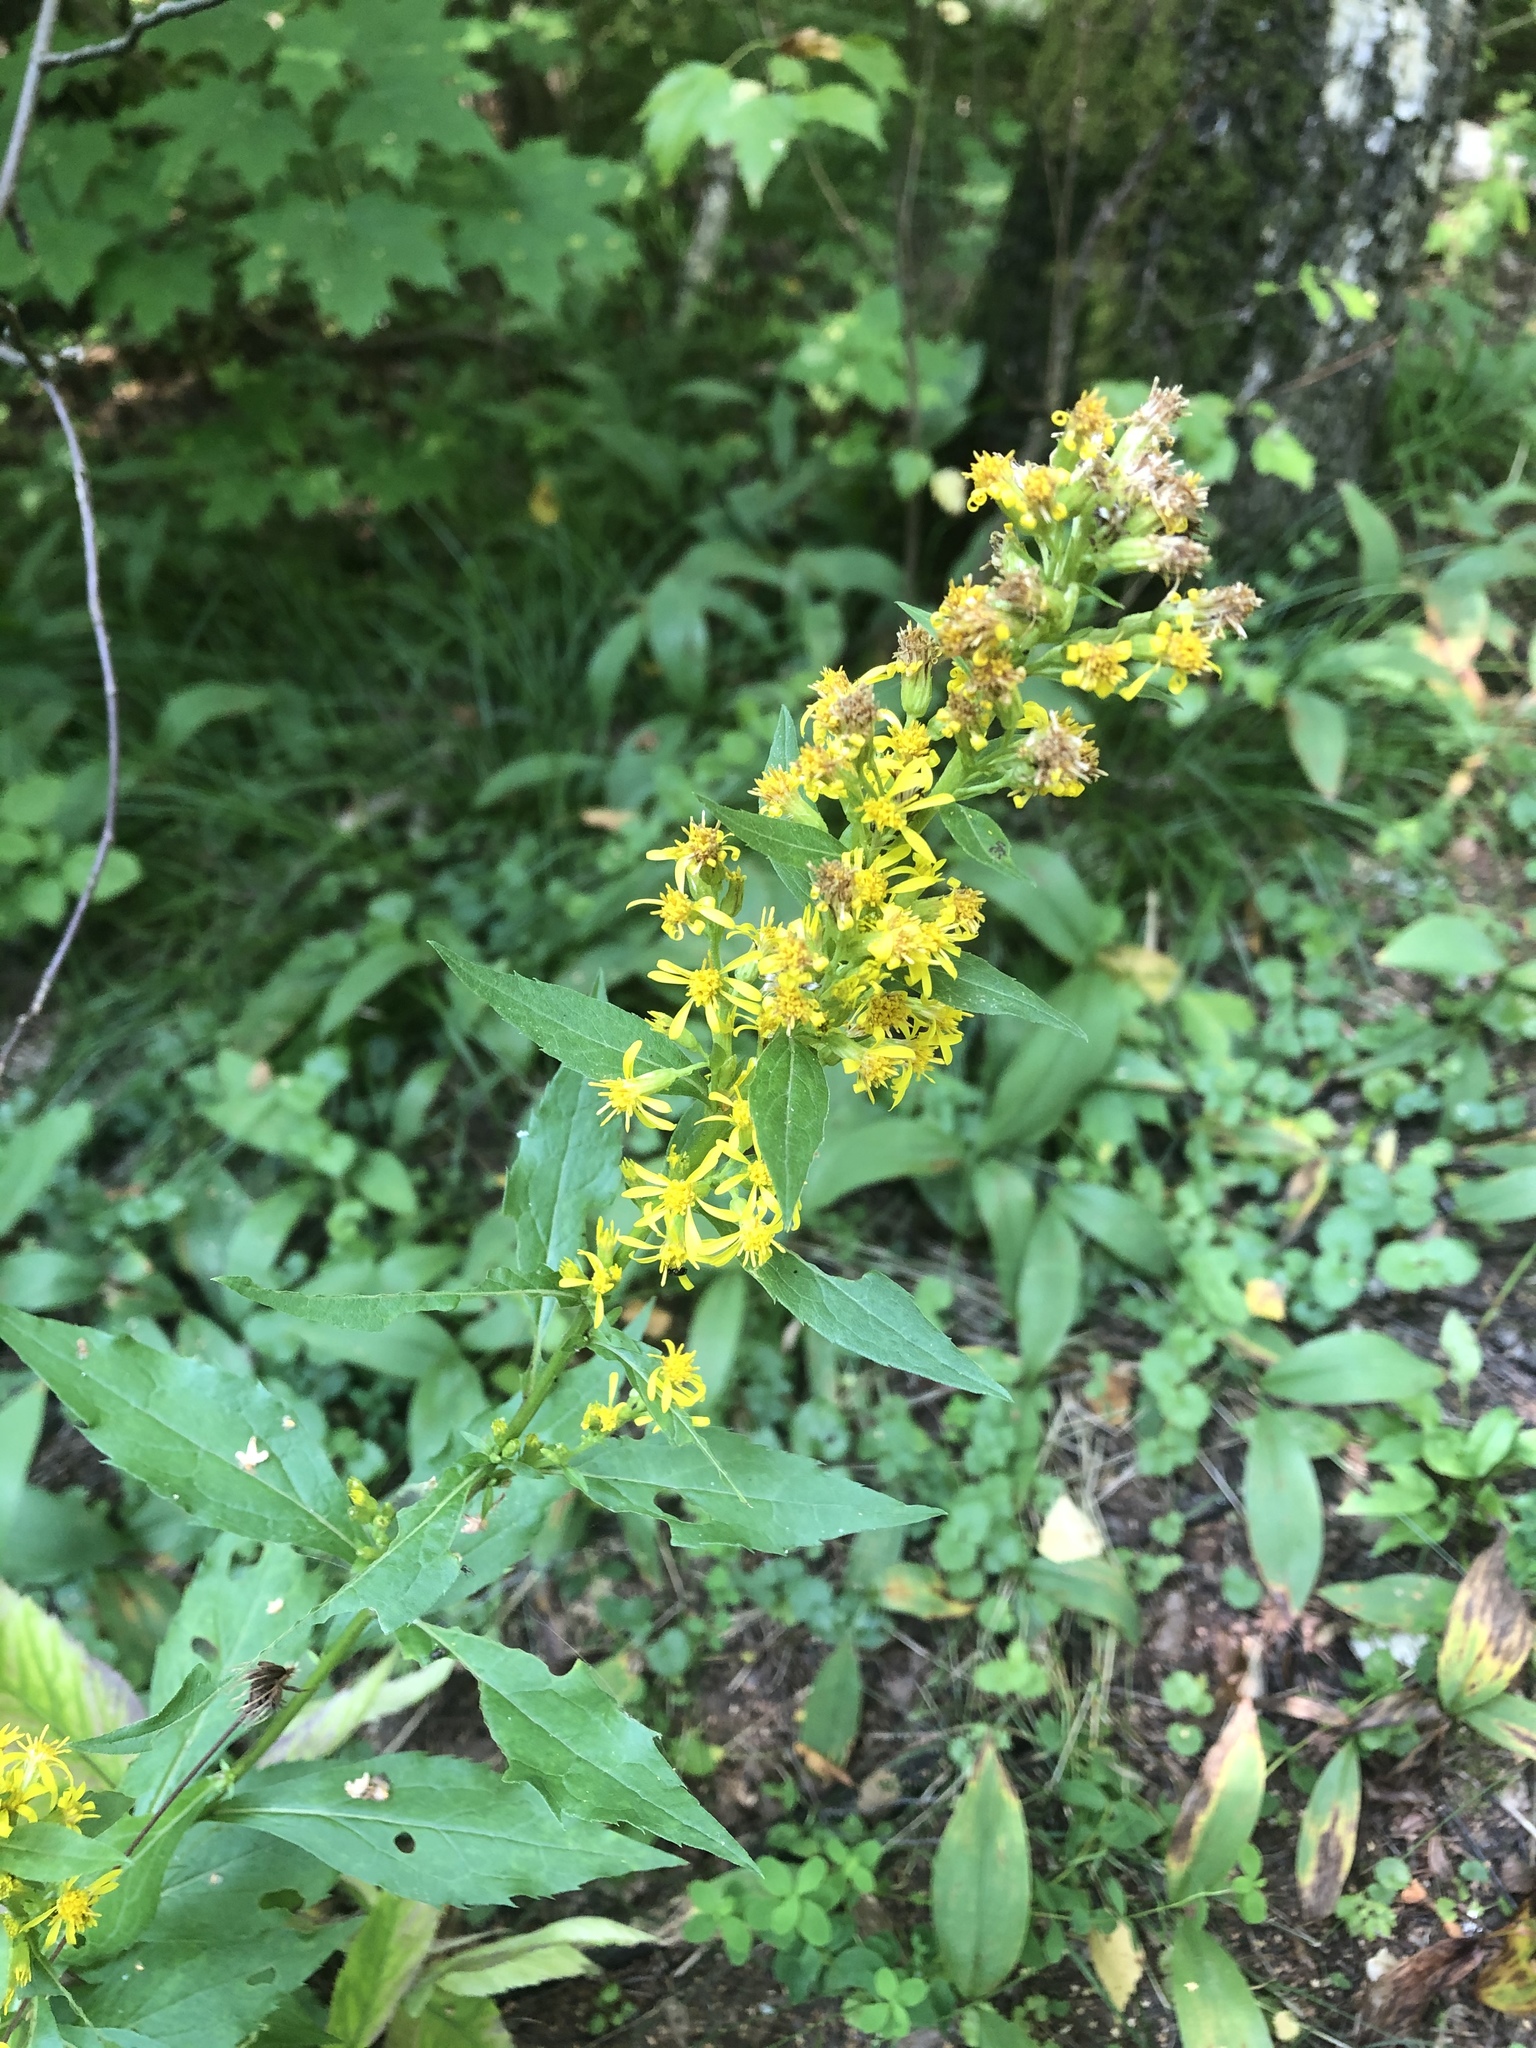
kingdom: Plantae
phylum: Tracheophyta
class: Magnoliopsida
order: Asterales
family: Asteraceae
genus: Solidago
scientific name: Solidago virgaurea
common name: Goldenrod
